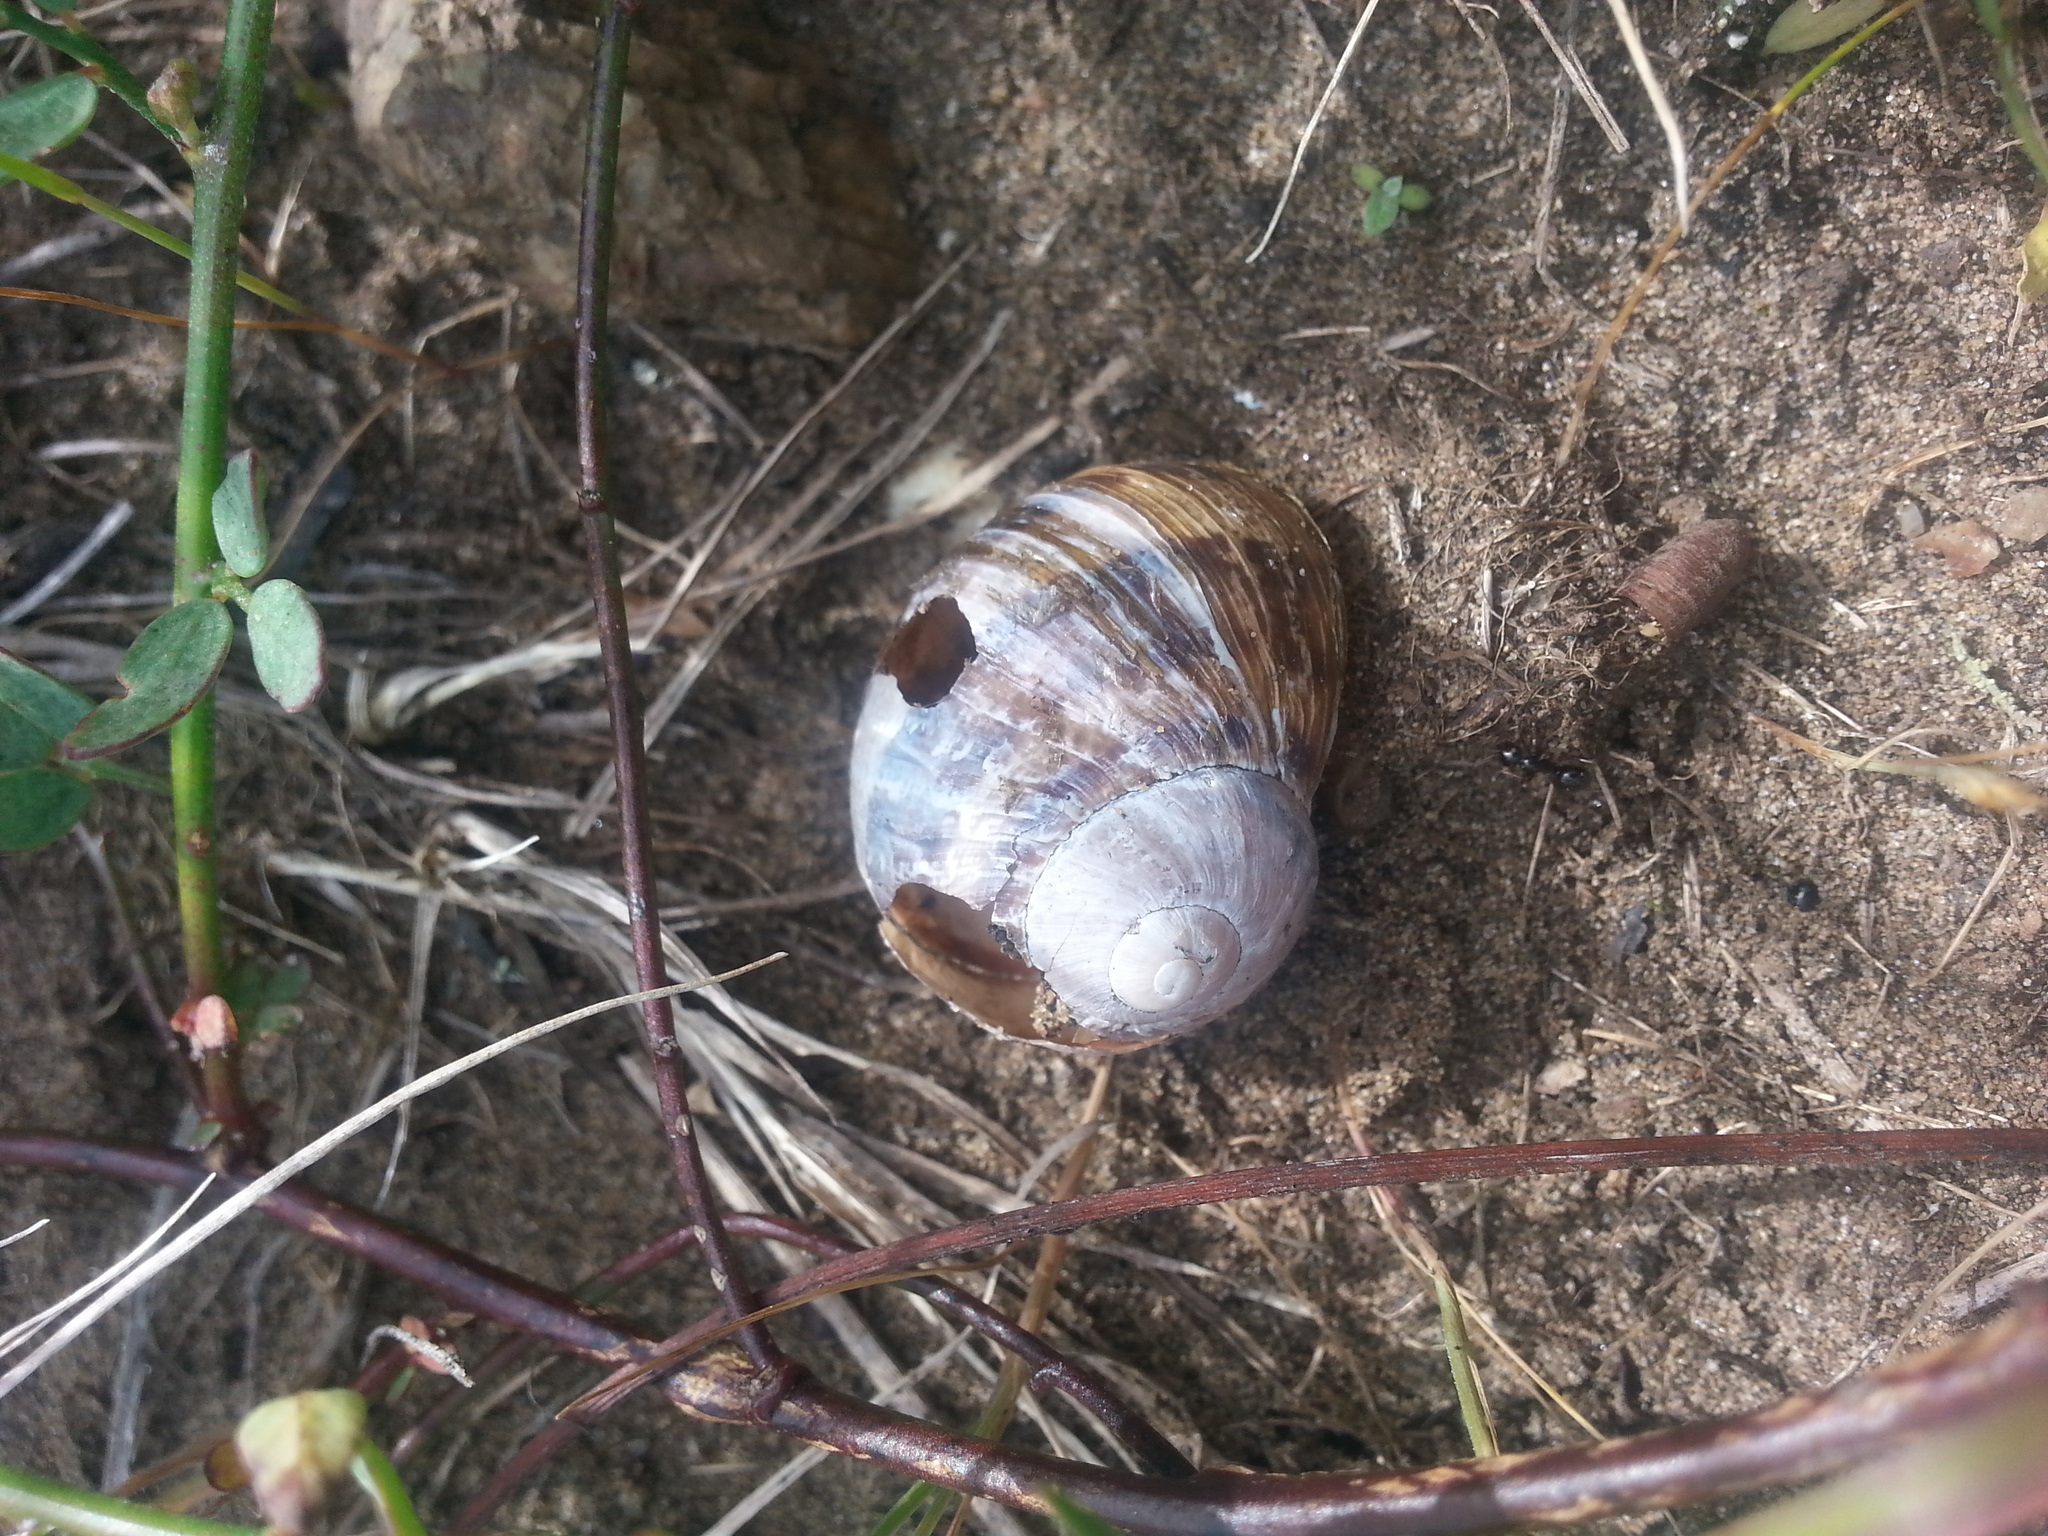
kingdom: Animalia
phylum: Mollusca
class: Gastropoda
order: Stylommatophora
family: Helicidae
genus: Cornu
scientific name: Cornu aspersum
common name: Brown garden snail
